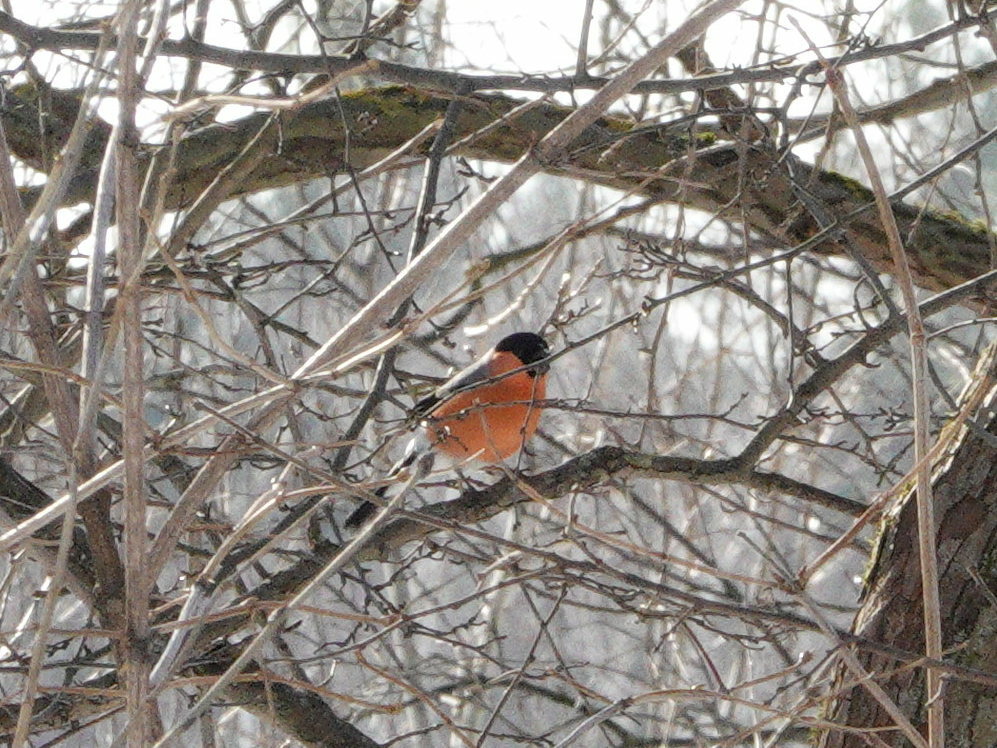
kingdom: Animalia
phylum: Chordata
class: Aves
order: Passeriformes
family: Fringillidae
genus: Pyrrhula
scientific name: Pyrrhula pyrrhula
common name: Eurasian bullfinch
